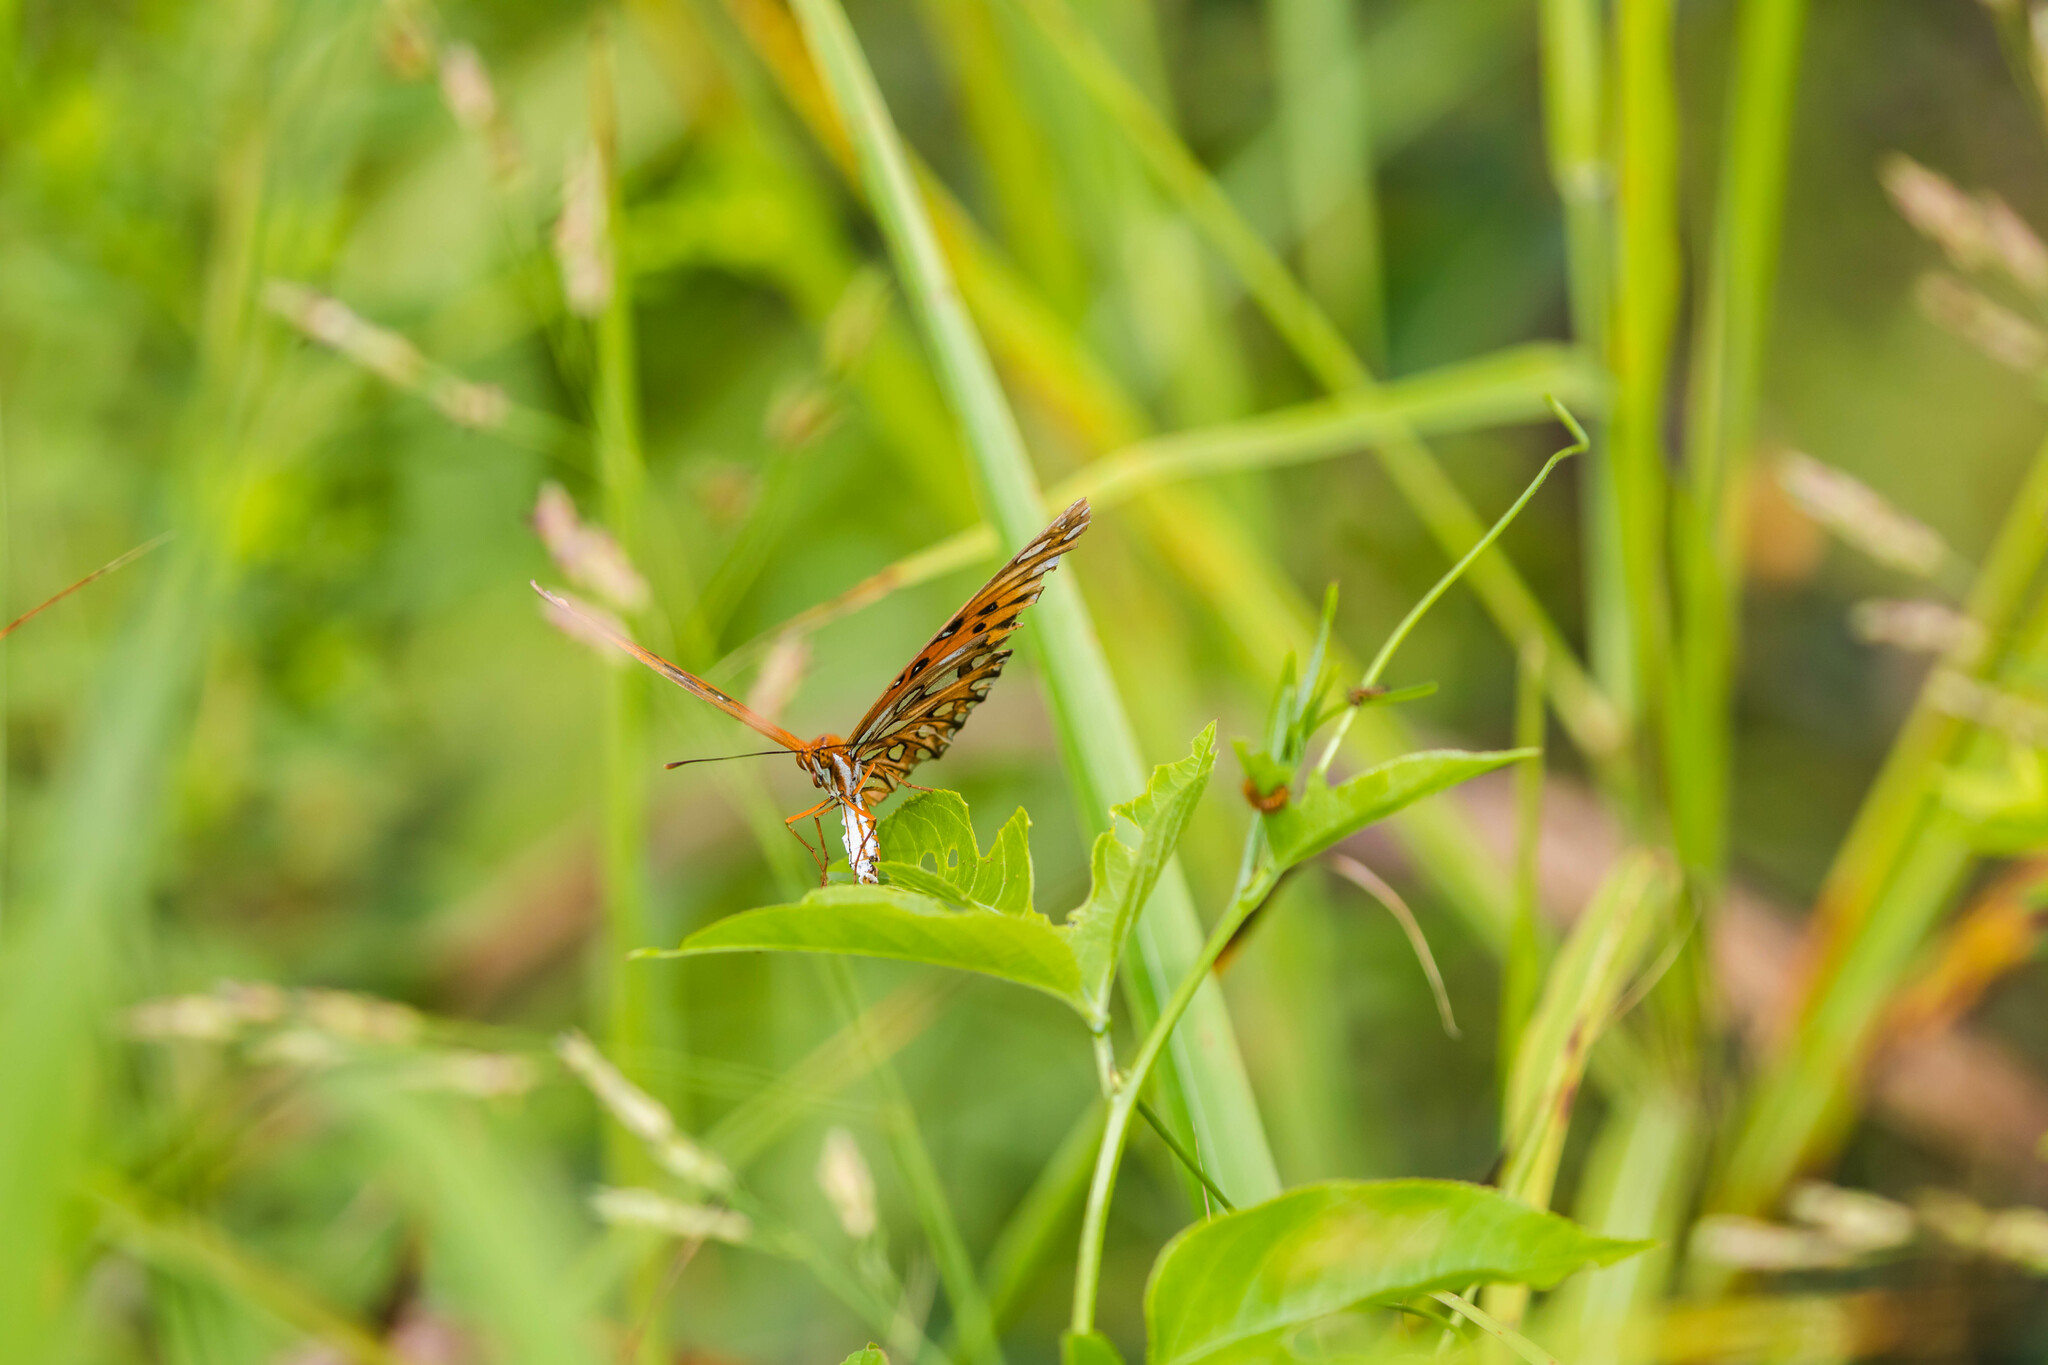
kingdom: Animalia
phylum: Arthropoda
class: Insecta
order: Lepidoptera
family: Nymphalidae
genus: Dione
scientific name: Dione vanillae
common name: Gulf fritillary
